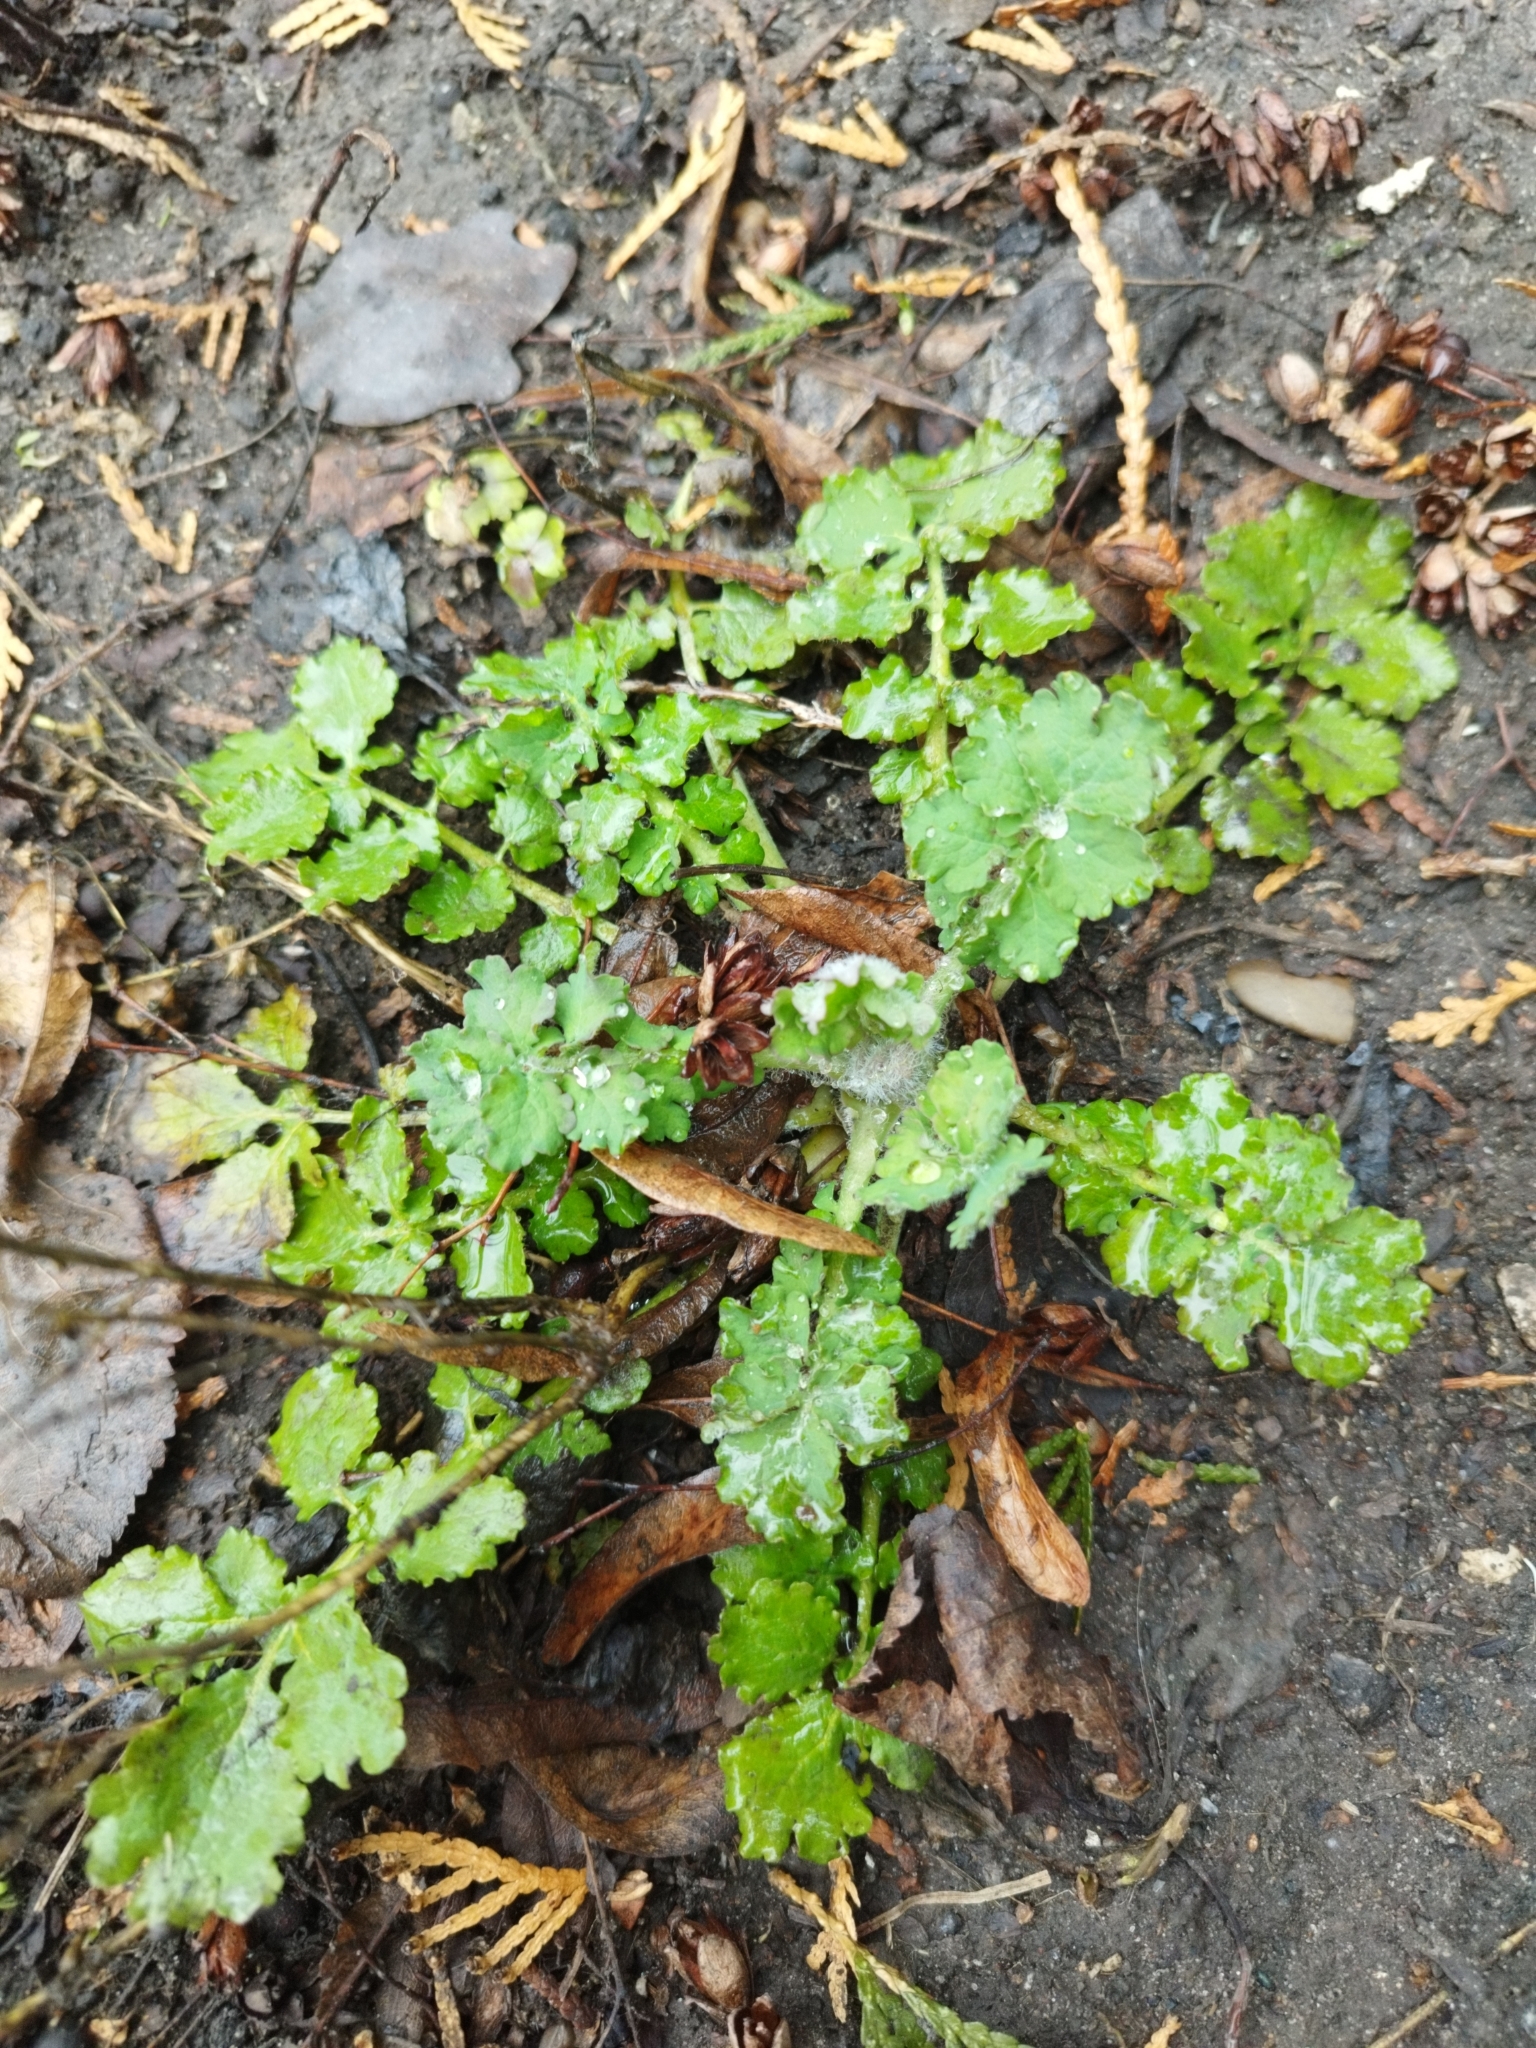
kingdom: Plantae
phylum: Tracheophyta
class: Magnoliopsida
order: Ranunculales
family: Papaveraceae
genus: Chelidonium
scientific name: Chelidonium majus
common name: Greater celandine
